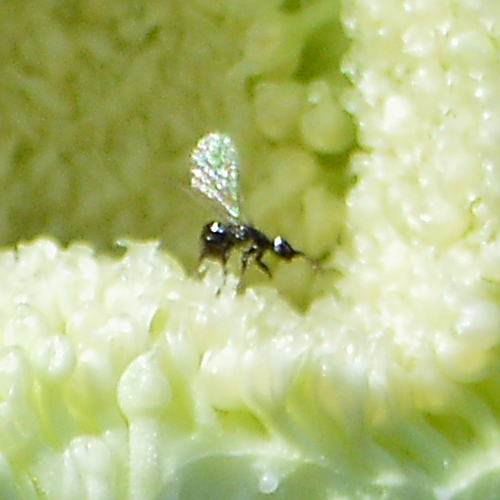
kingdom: Animalia
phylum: Arthropoda
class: Insecta
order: Hymenoptera
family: Agaonidae
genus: Blastophaga
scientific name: Blastophaga psenes
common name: Agaonid wasp
